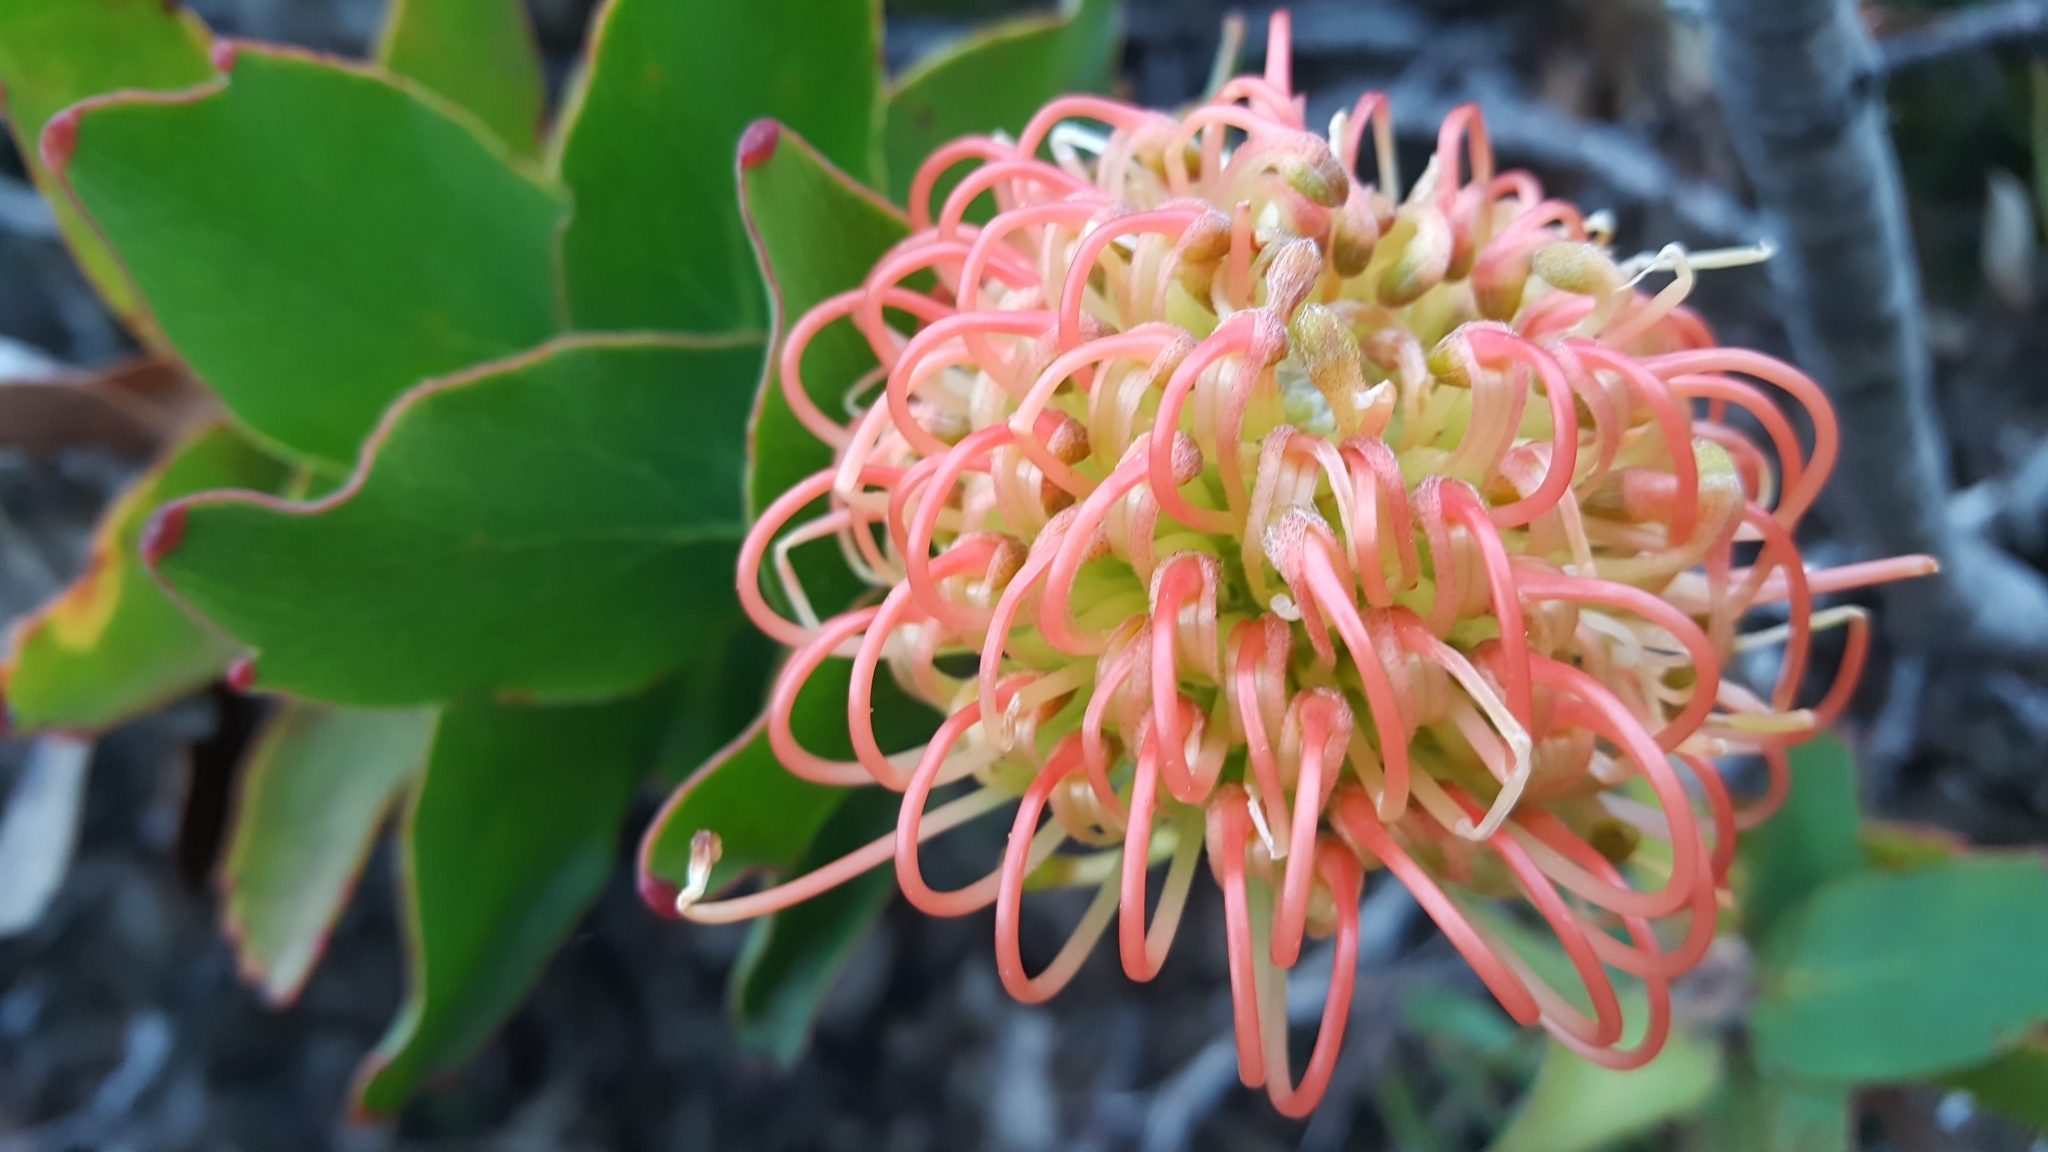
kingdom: Plantae
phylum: Tracheophyta
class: Magnoliopsida
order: Proteales
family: Proteaceae
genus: Leucospermum
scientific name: Leucospermum cordifolium
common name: Red pincushion-protea
